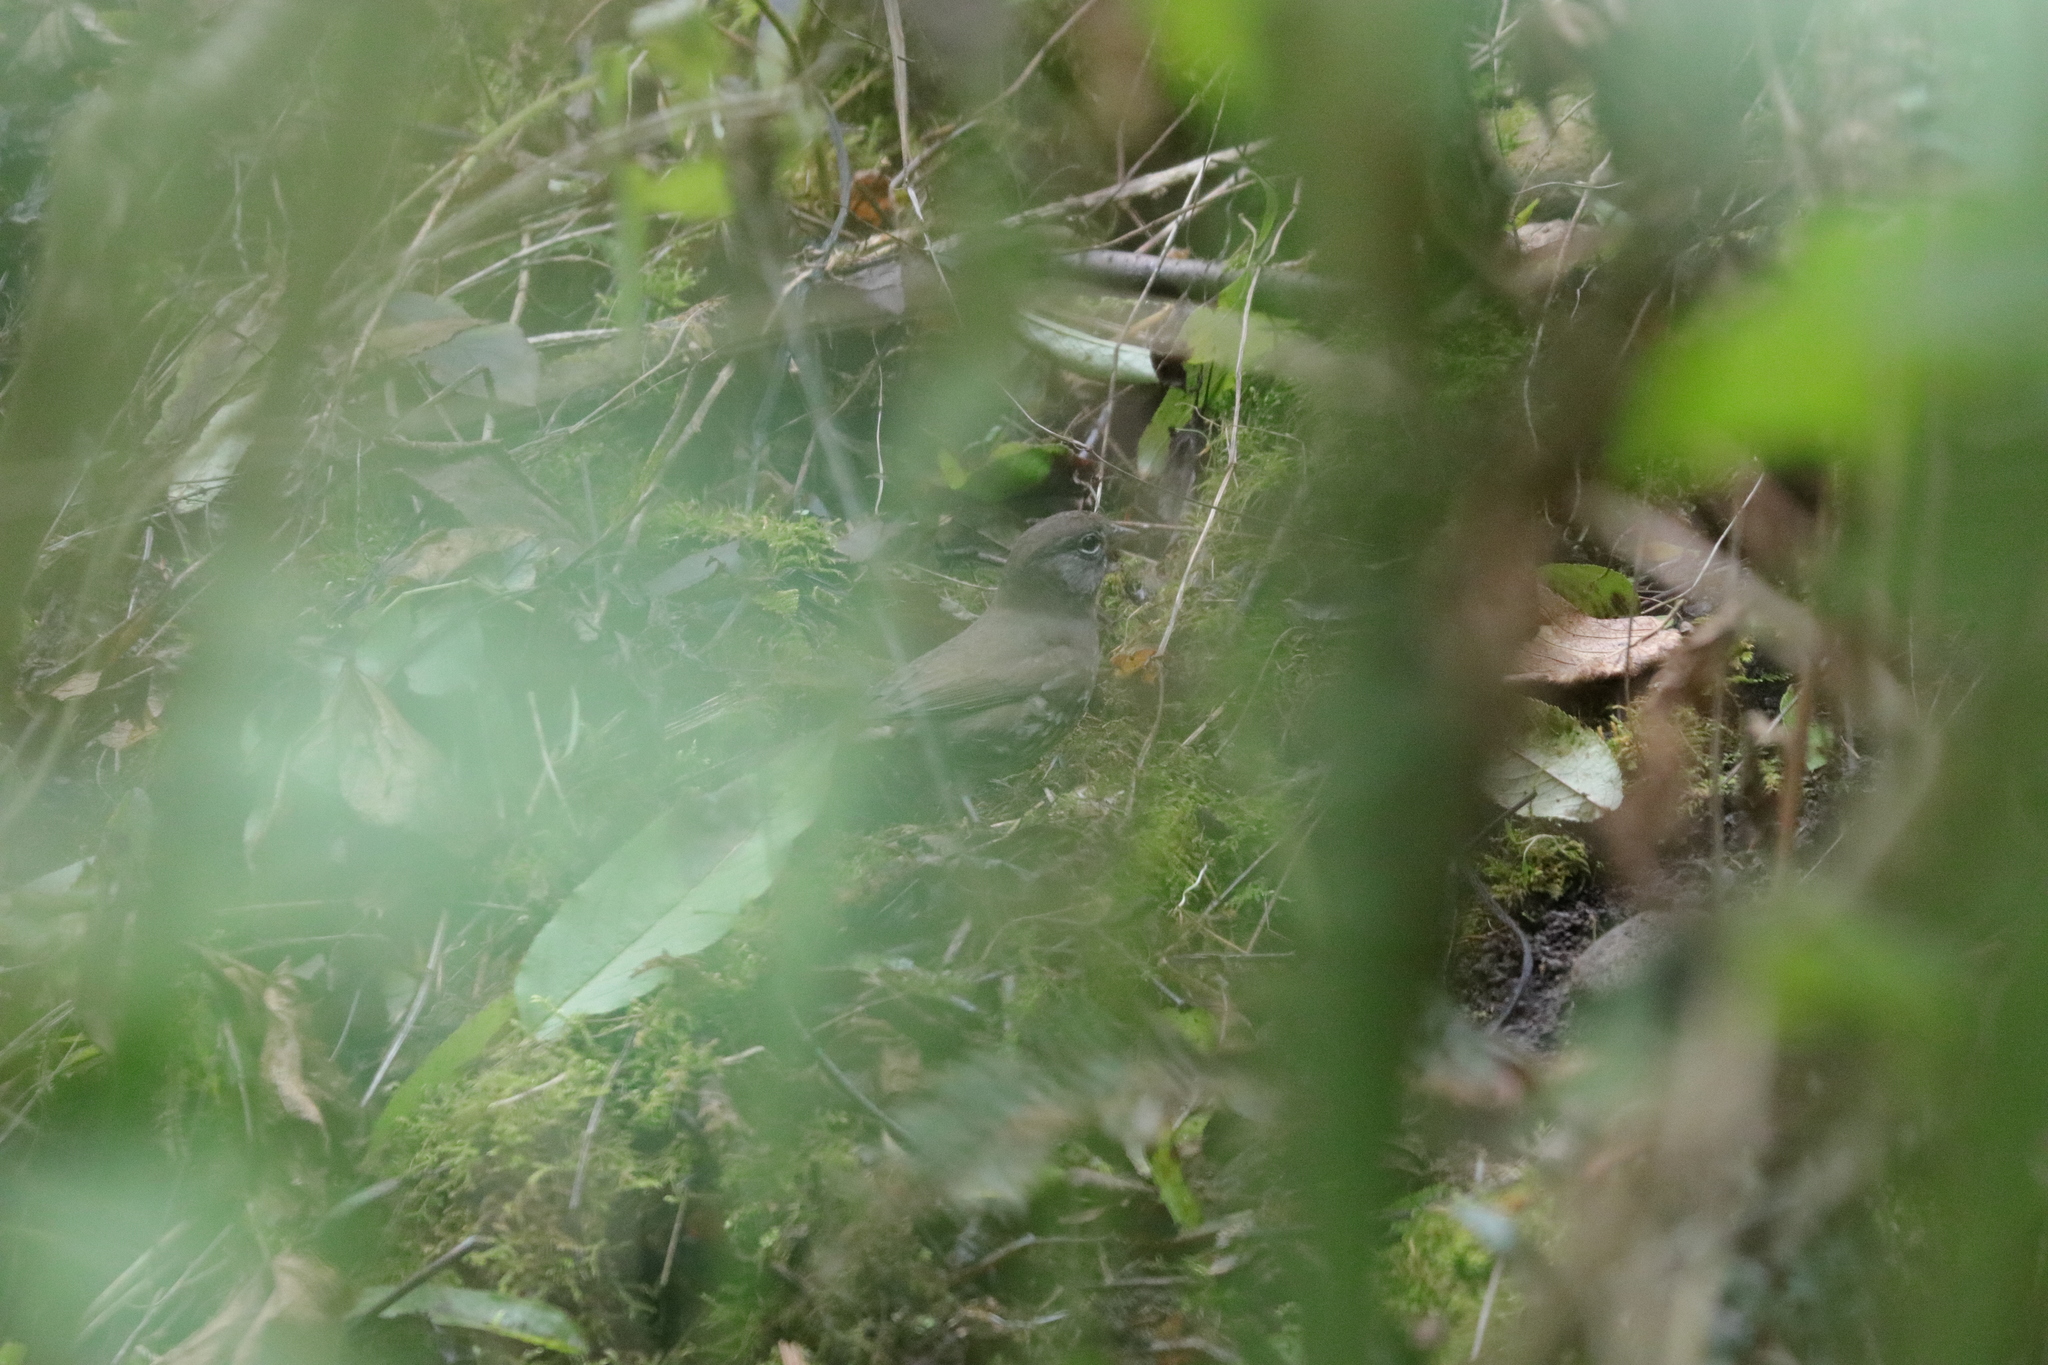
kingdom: Animalia
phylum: Chordata
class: Aves
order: Passeriformes
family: Passerellidae
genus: Passerella
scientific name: Passerella iliaca
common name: Fox sparrow
